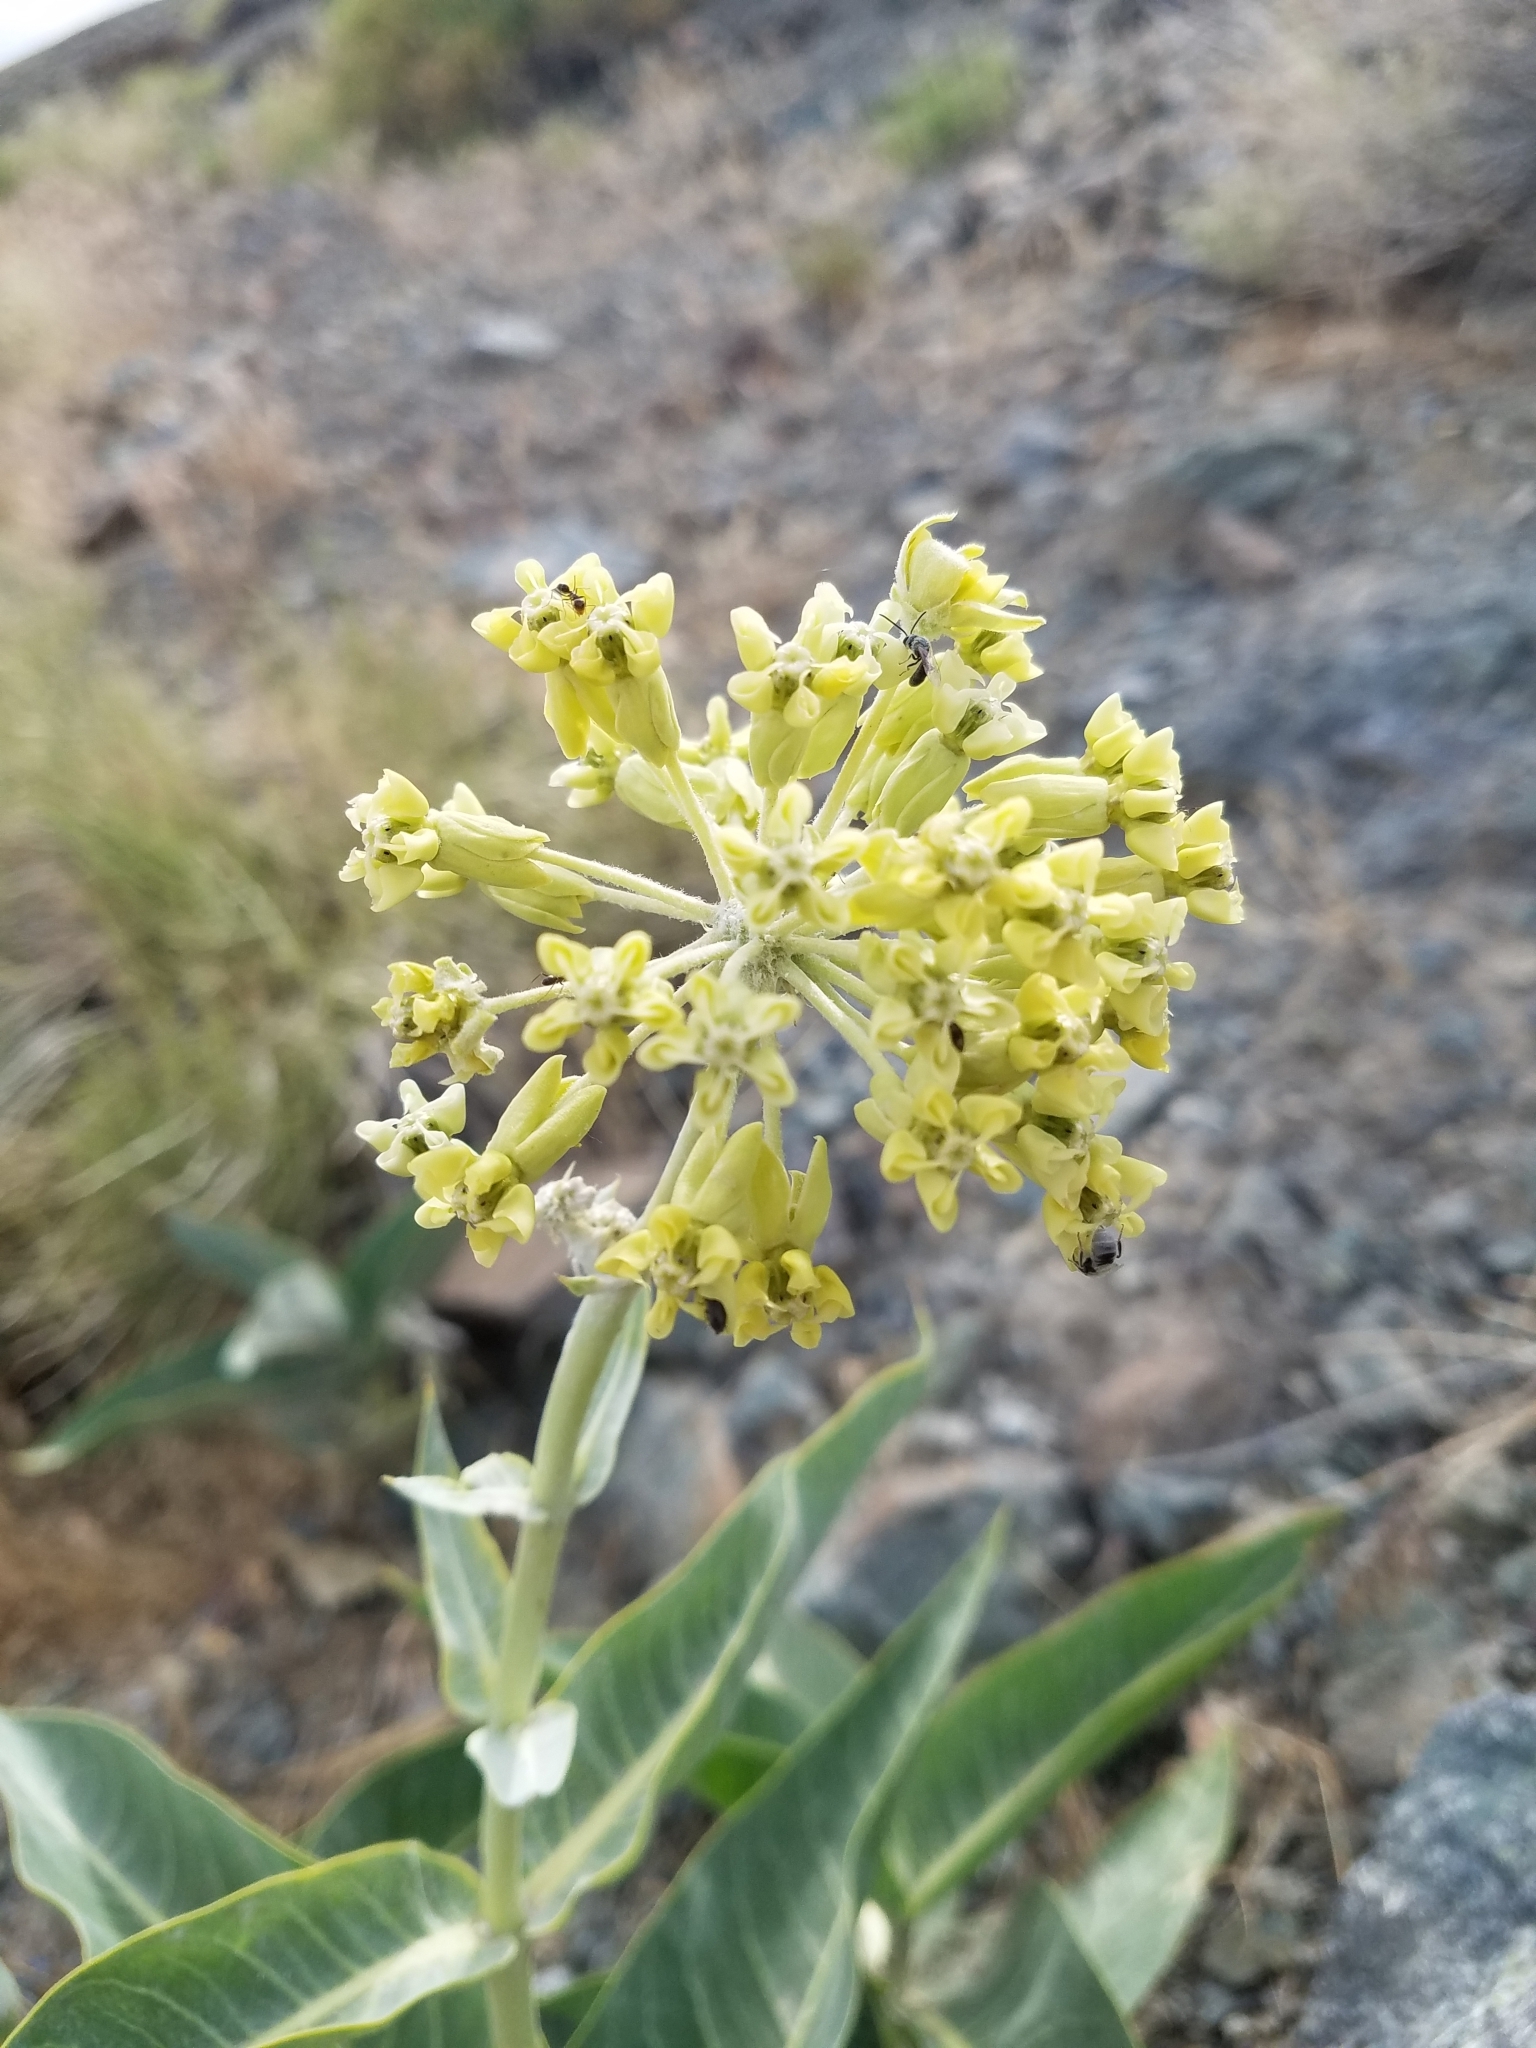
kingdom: Plantae
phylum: Tracheophyta
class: Magnoliopsida
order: Gentianales
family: Apocynaceae
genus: Asclepias
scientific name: Asclepias erosa
